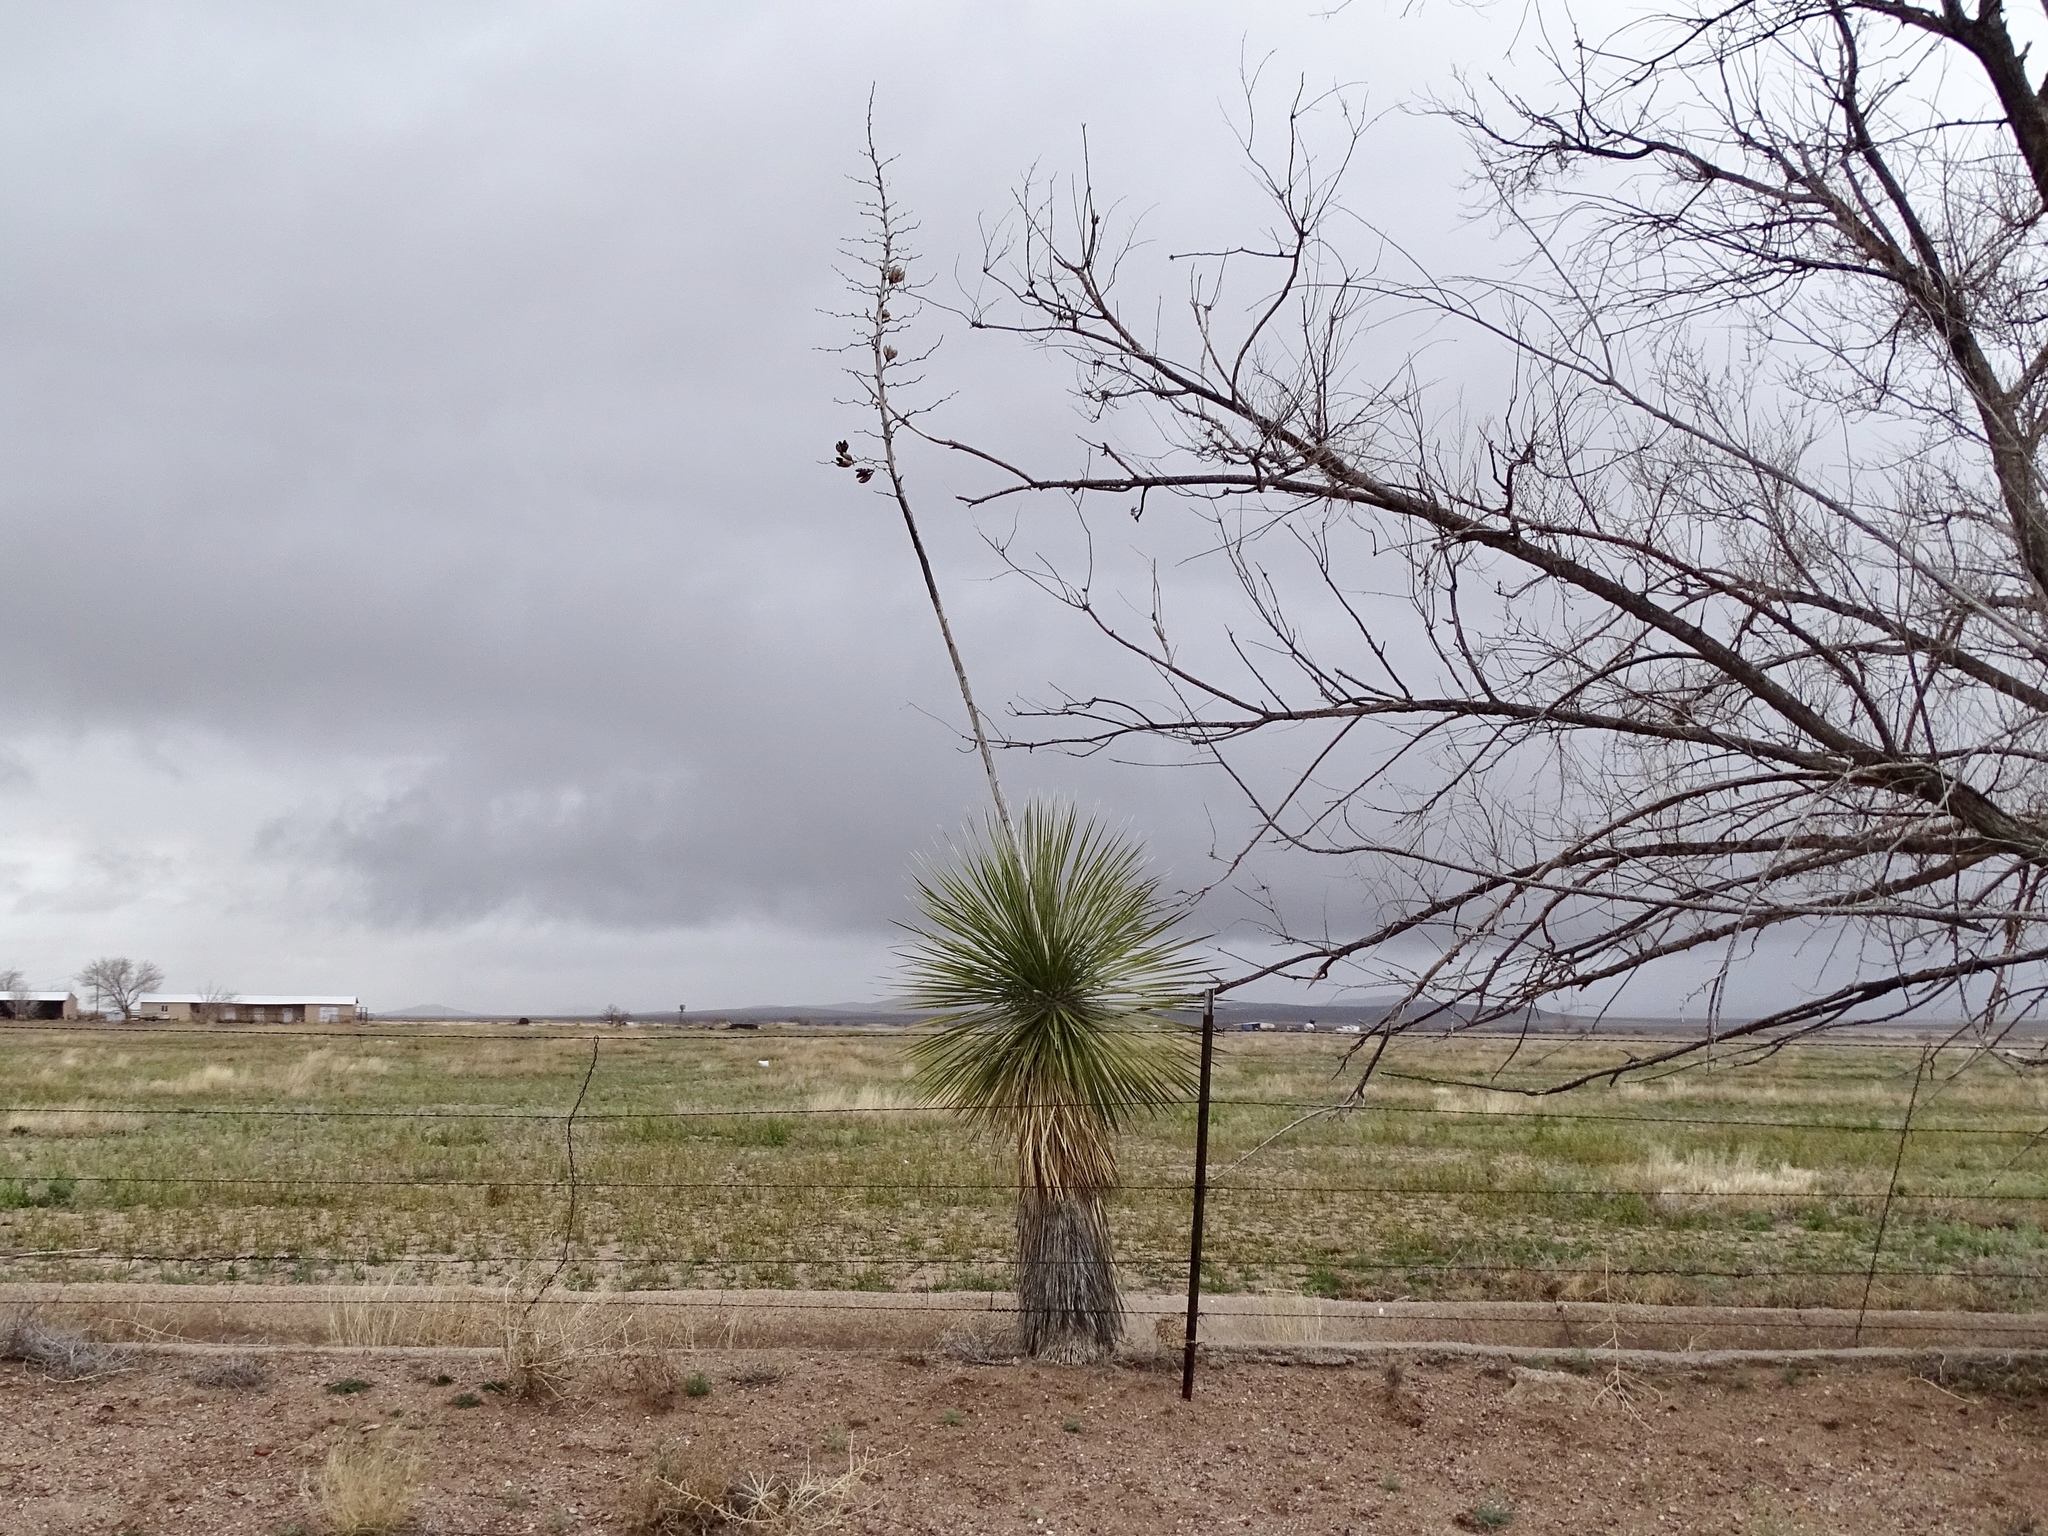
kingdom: Plantae
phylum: Tracheophyta
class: Liliopsida
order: Asparagales
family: Asparagaceae
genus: Yucca
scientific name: Yucca elata
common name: Palmella
